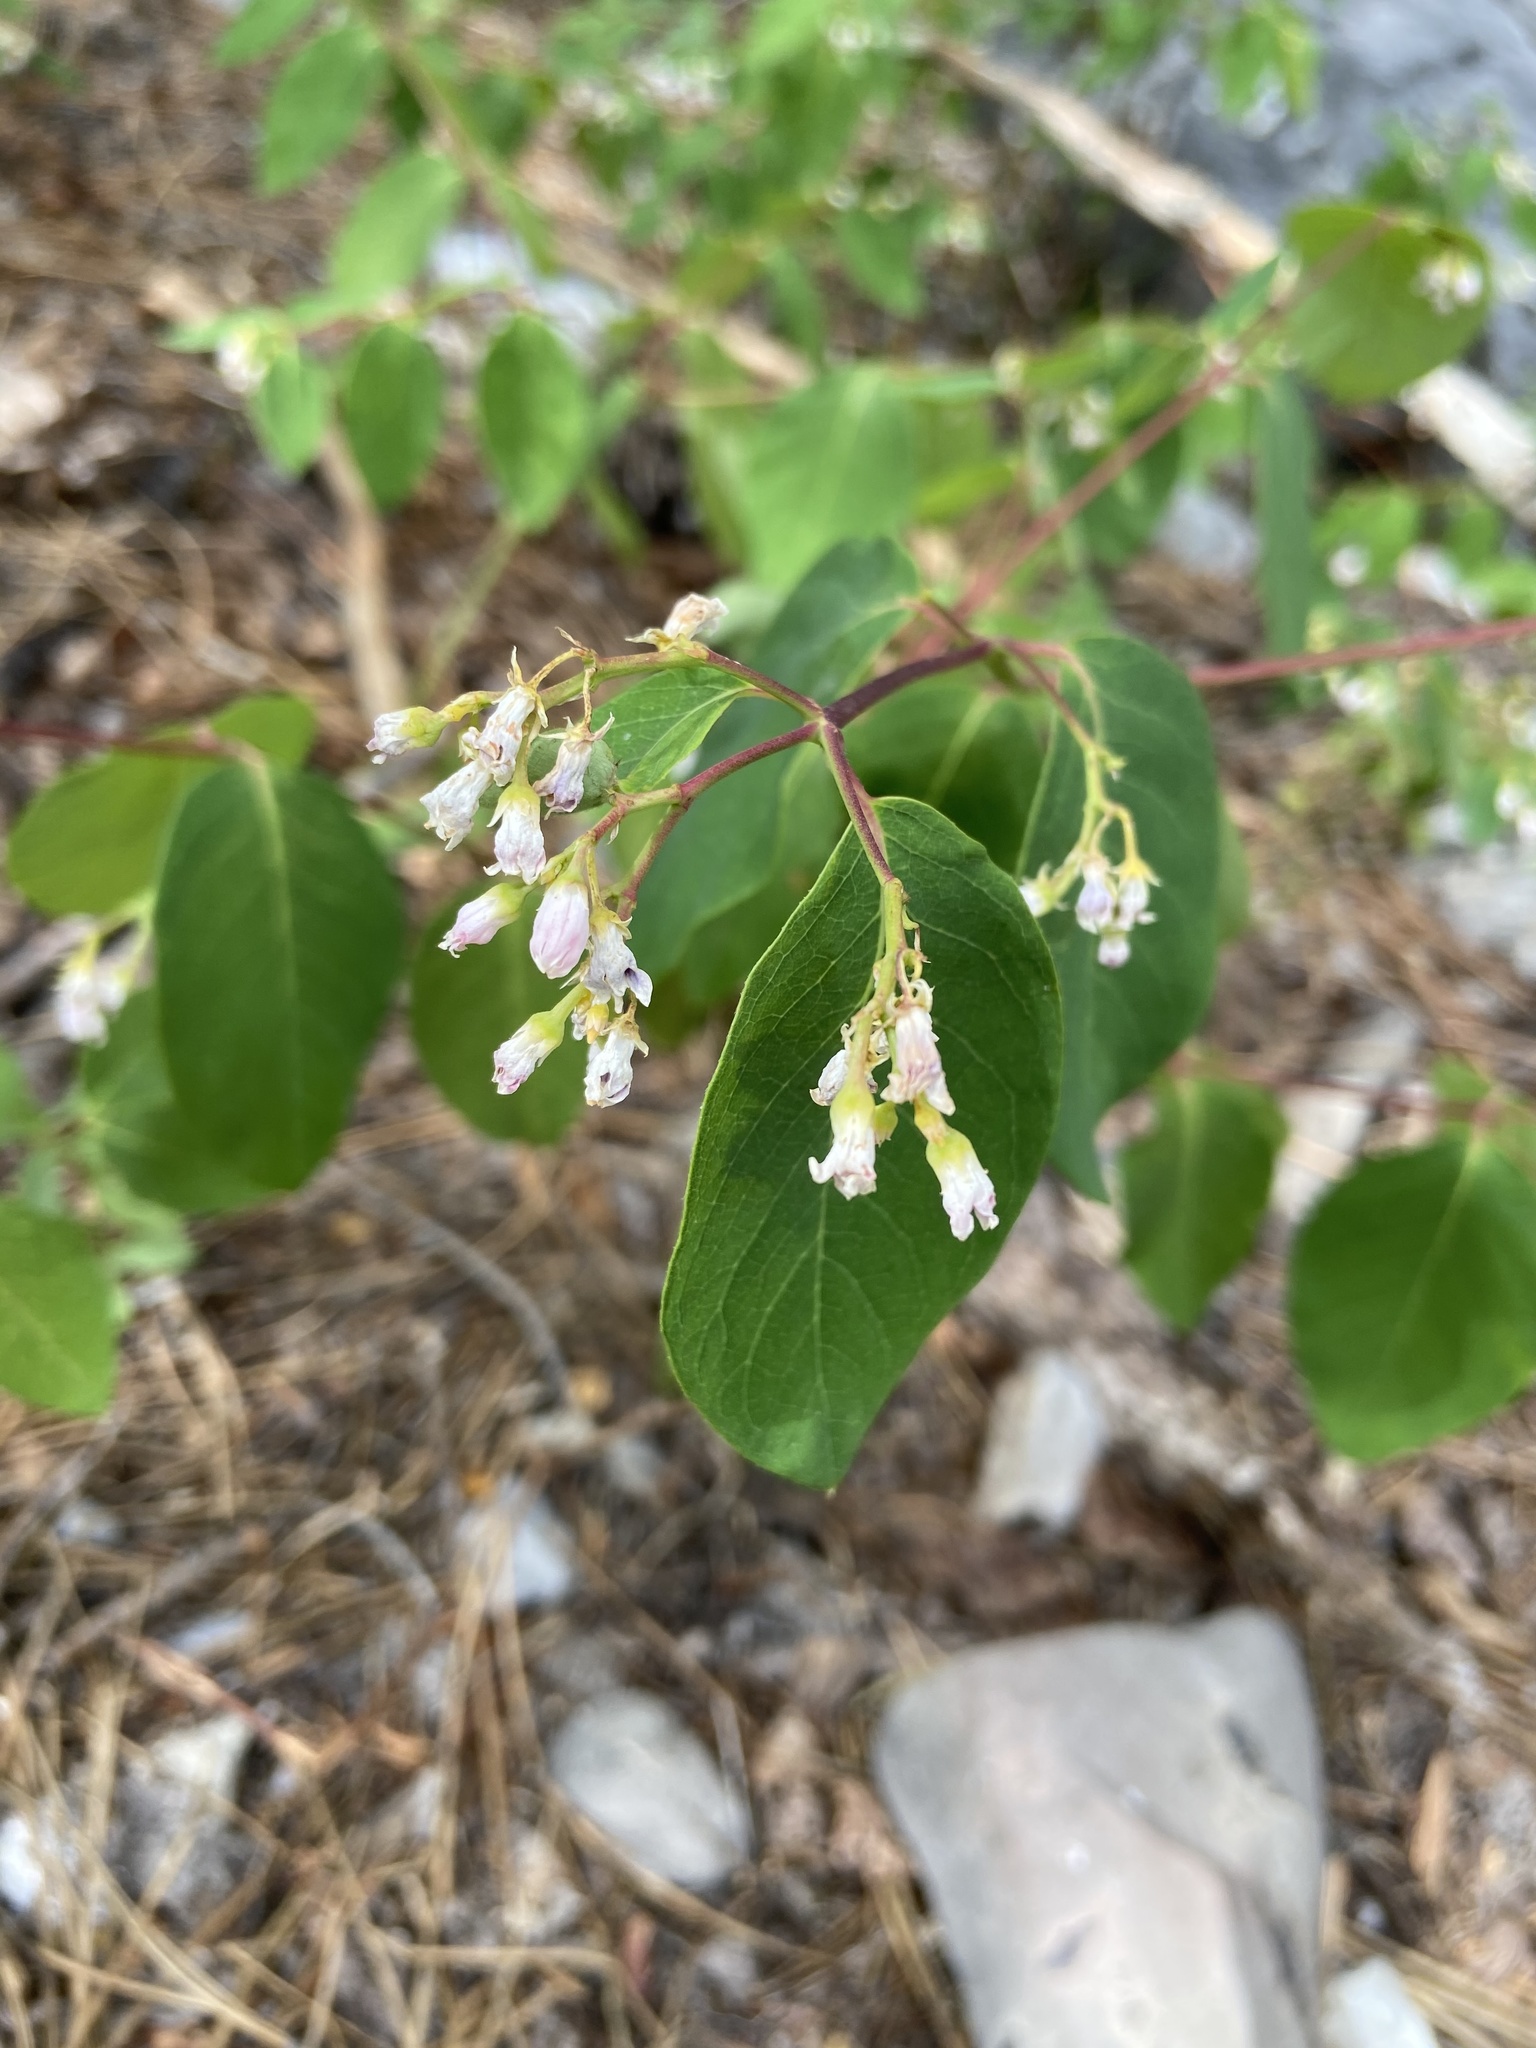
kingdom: Plantae
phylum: Tracheophyta
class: Magnoliopsida
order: Gentianales
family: Apocynaceae
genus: Apocynum
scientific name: Apocynum androsaemifolium
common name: Spreading dogbane
